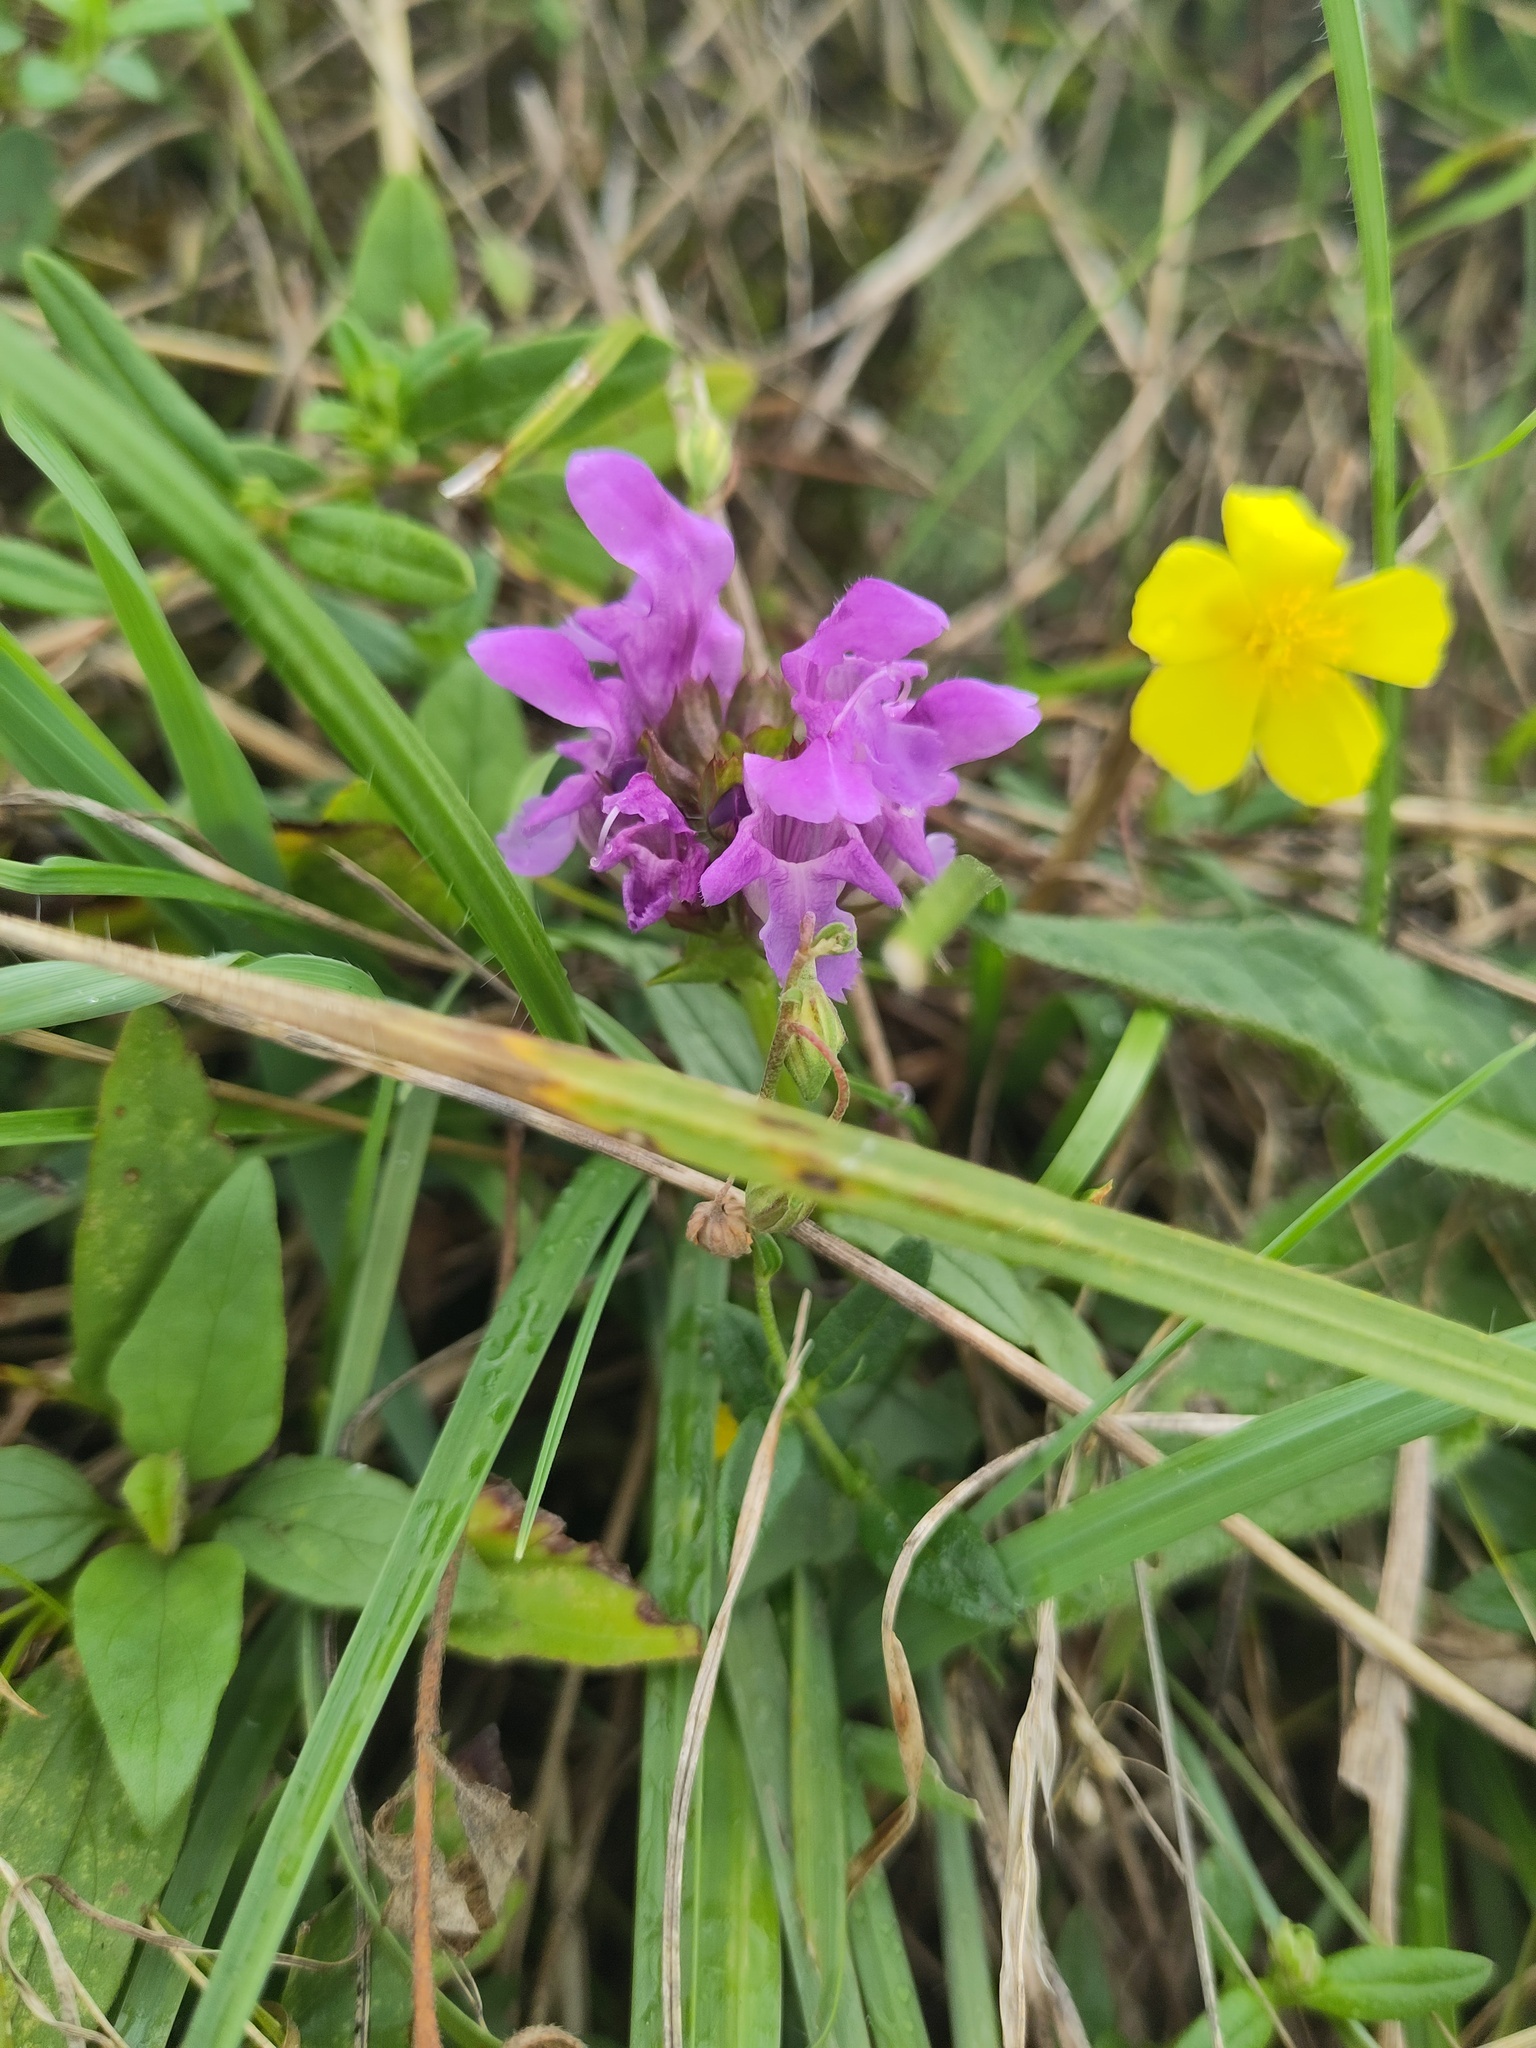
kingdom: Plantae
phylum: Tracheophyta
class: Magnoliopsida
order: Lamiales
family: Lamiaceae
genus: Prunella
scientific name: Prunella grandiflora
